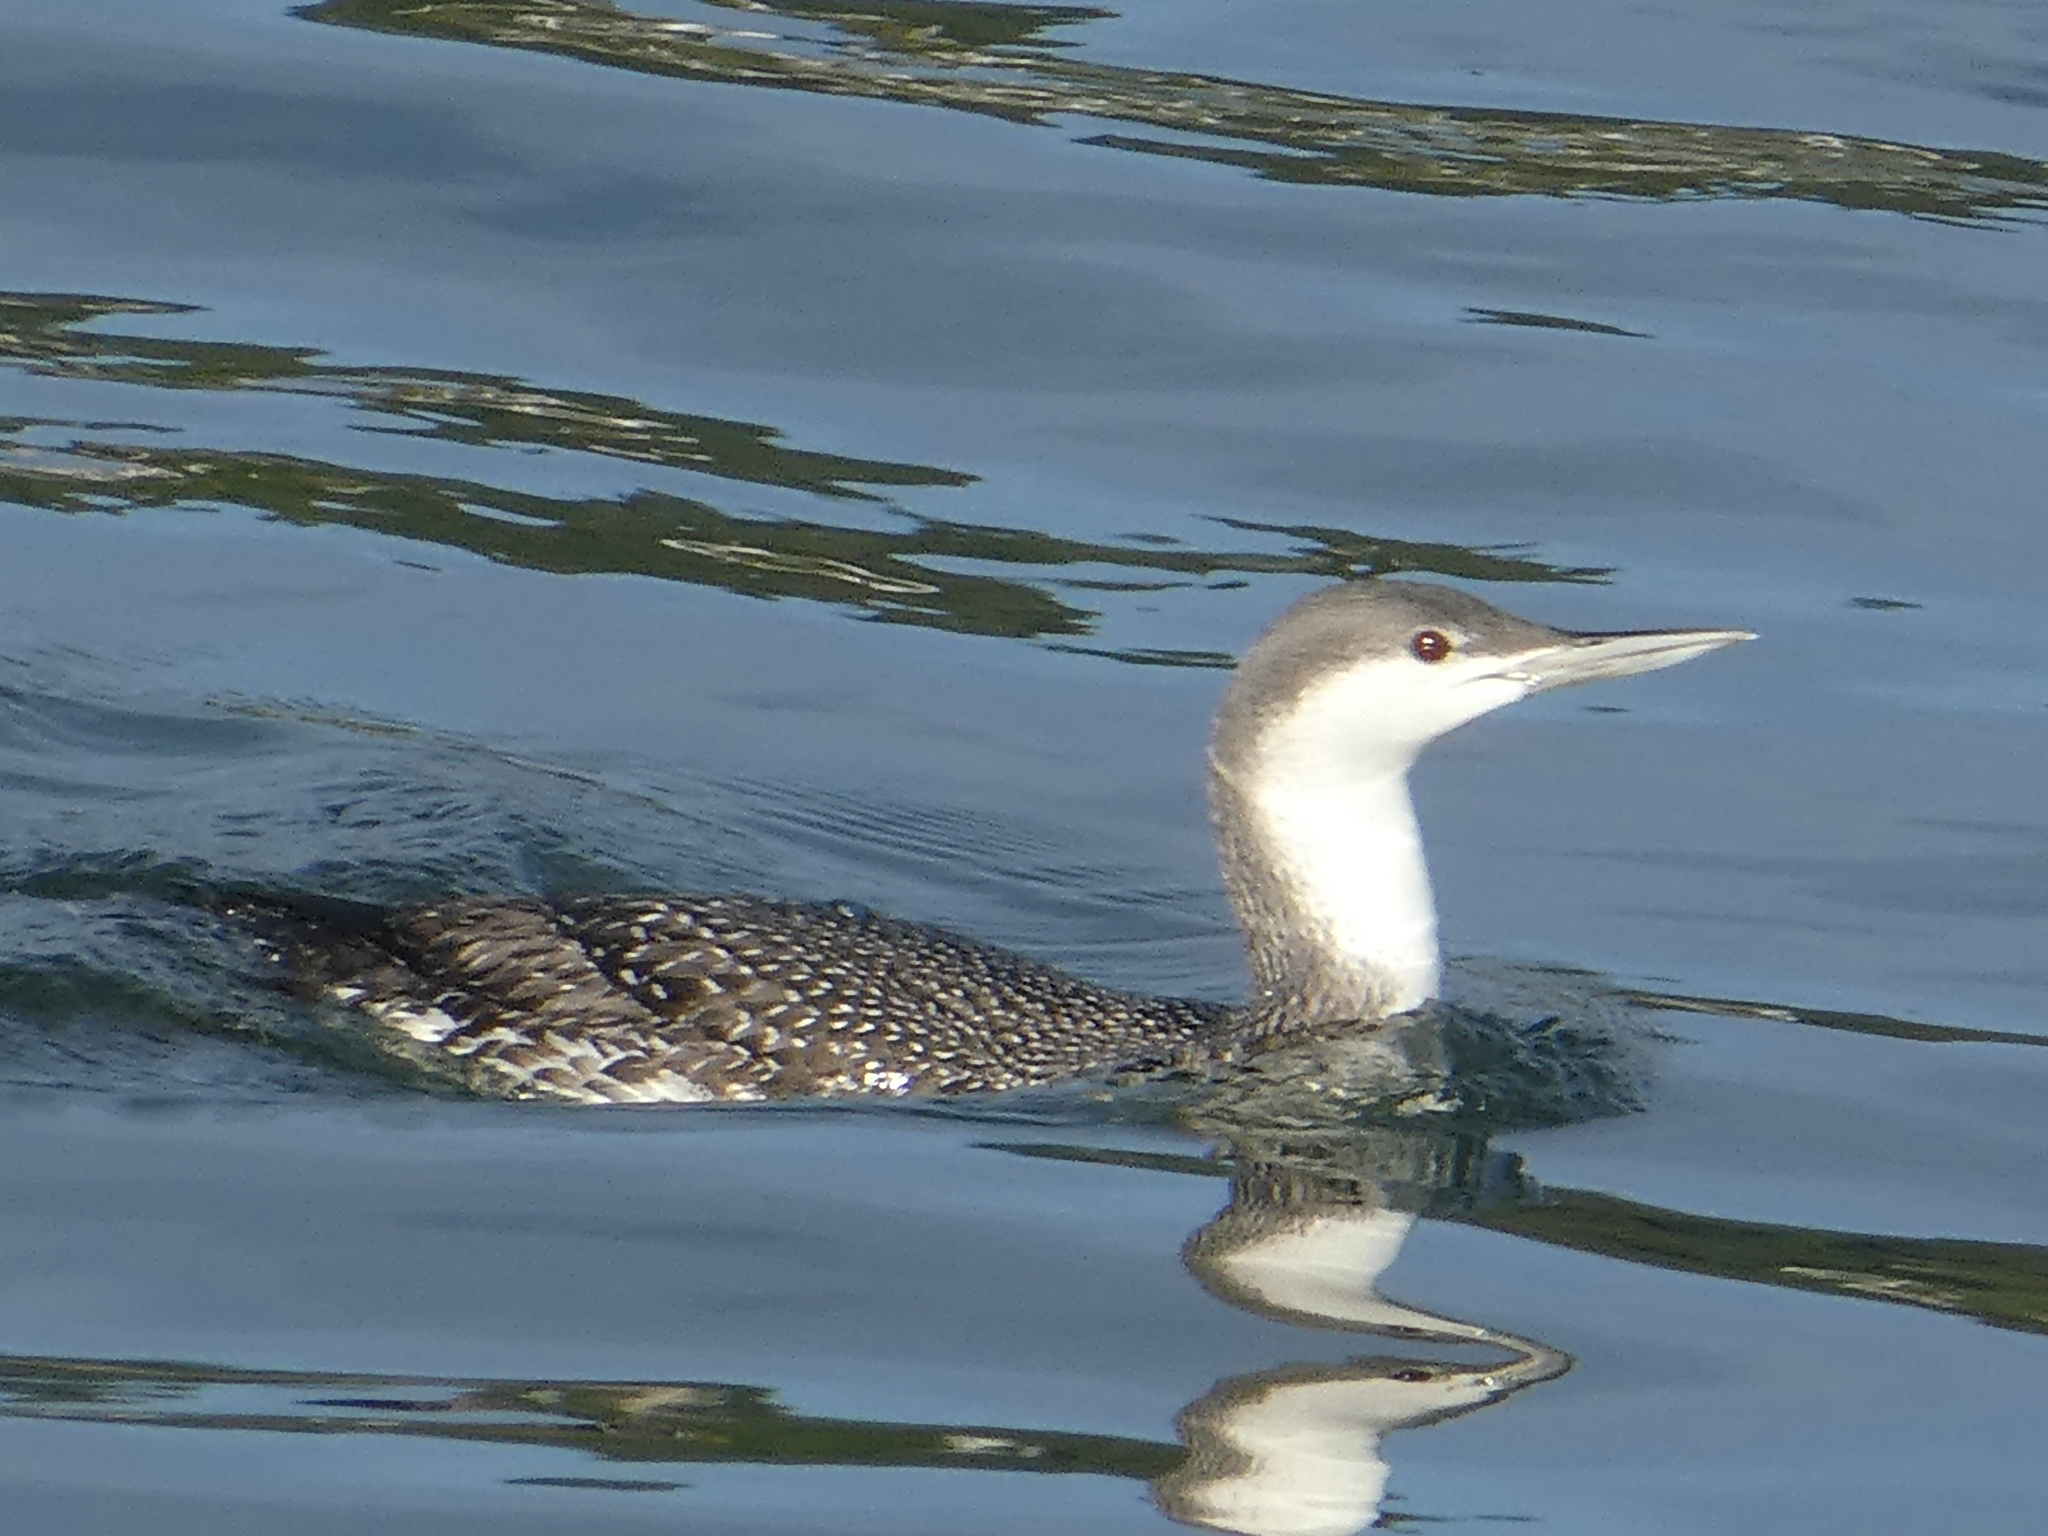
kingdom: Animalia
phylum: Chordata
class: Aves
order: Gaviiformes
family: Gaviidae
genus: Gavia
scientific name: Gavia stellata
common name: Red-throated loon
